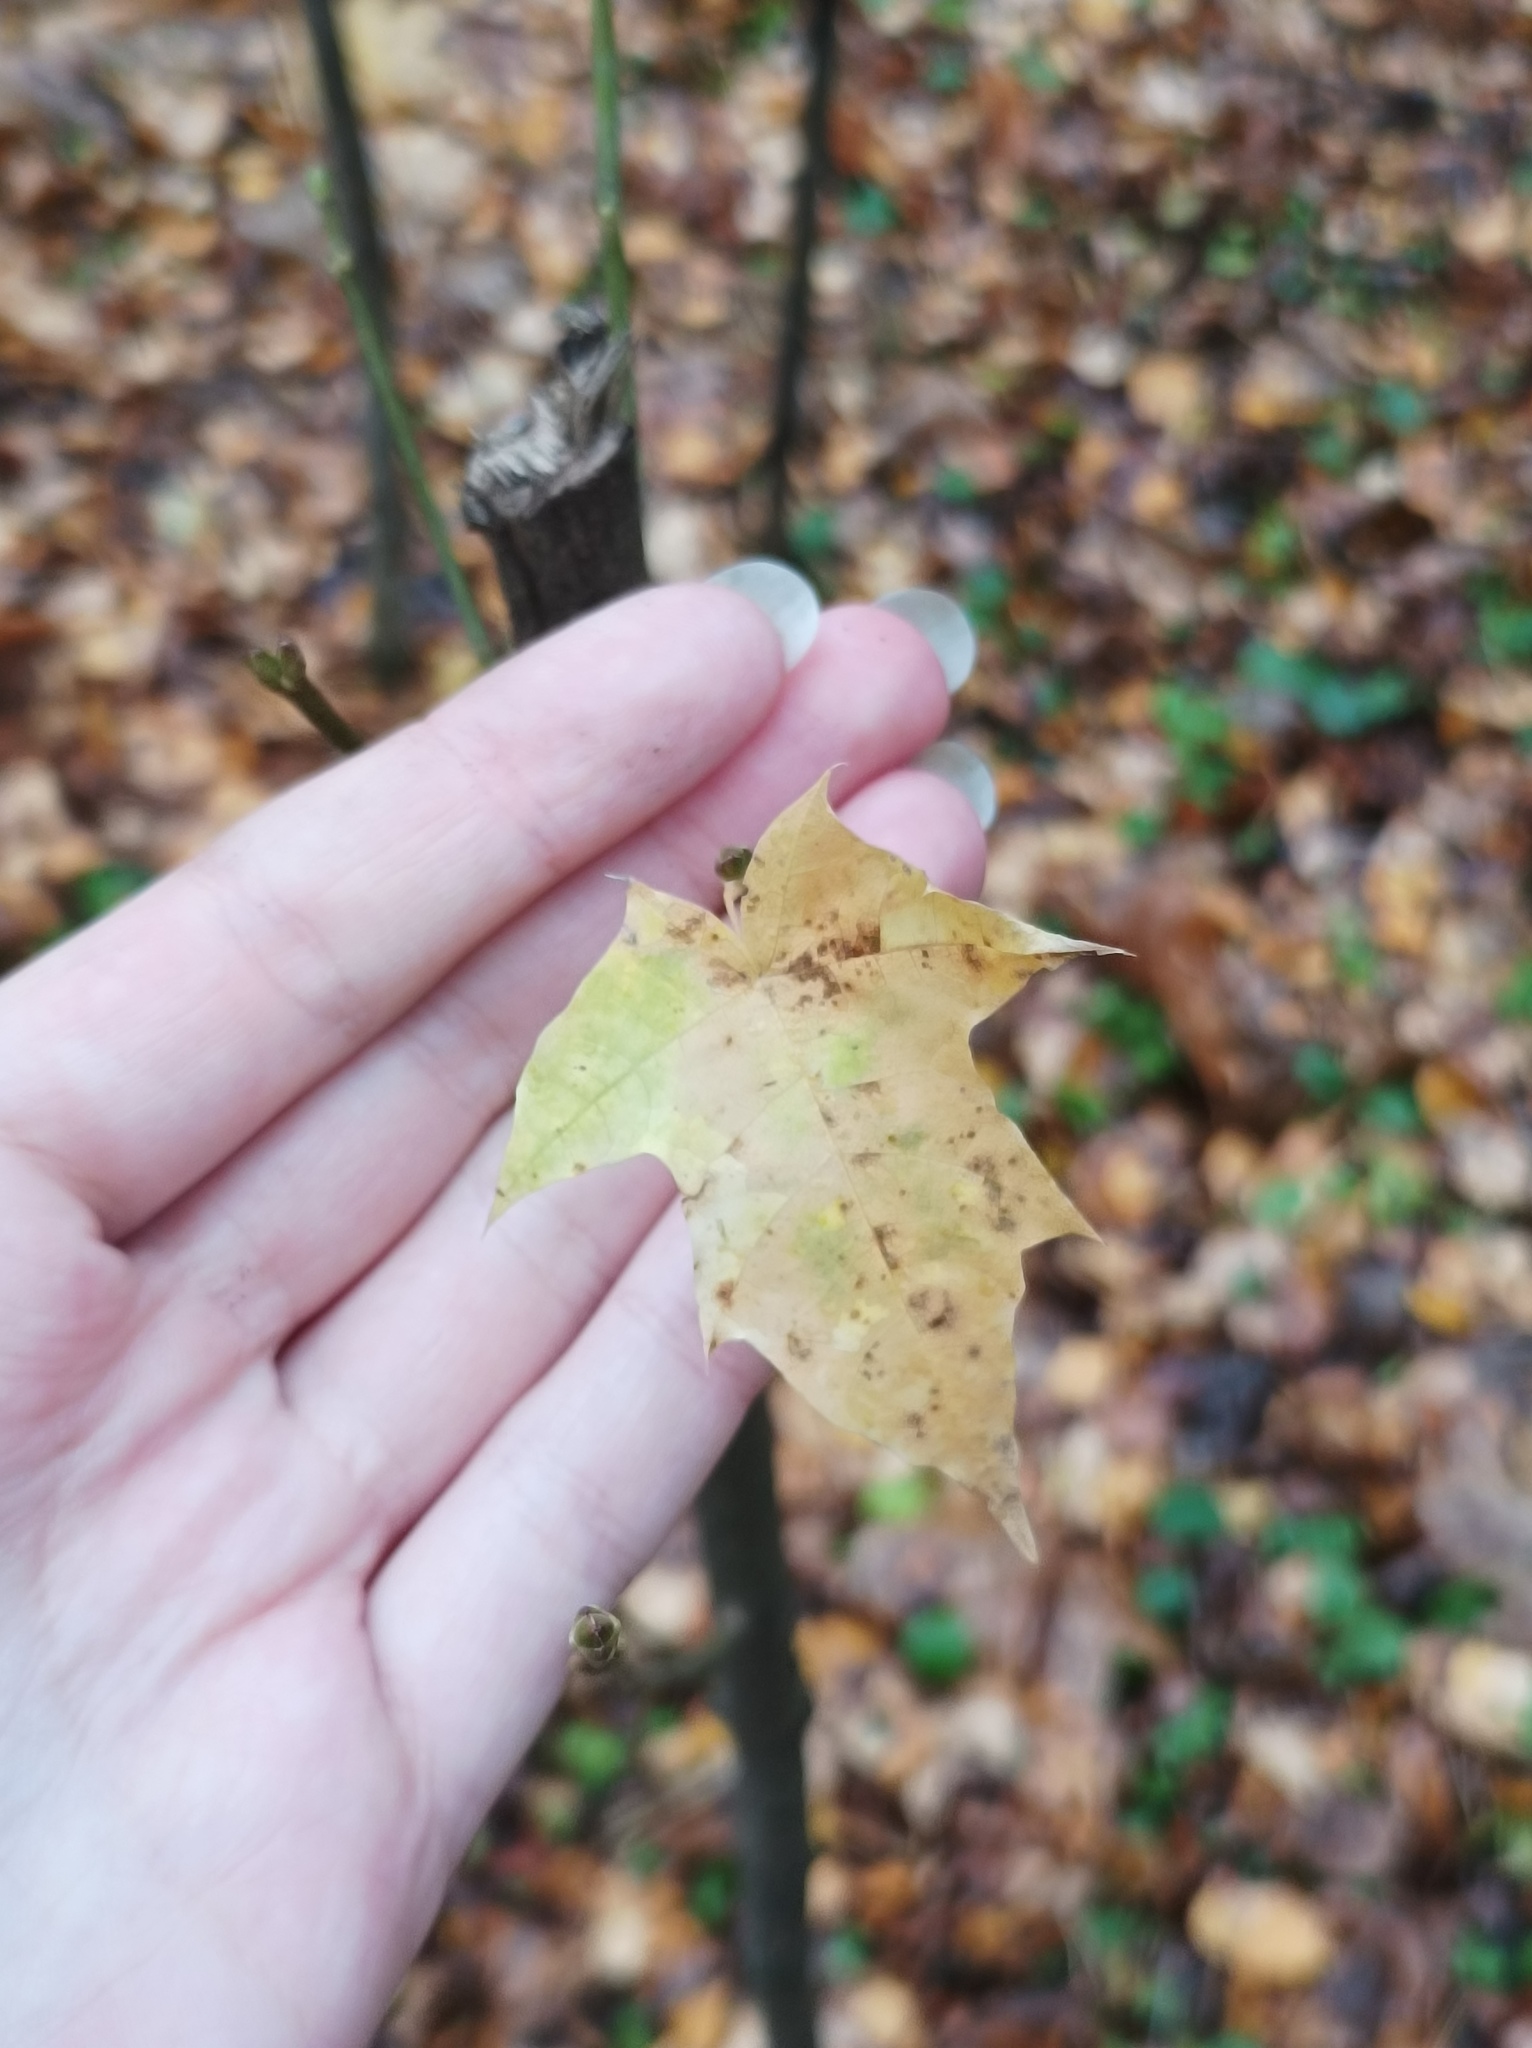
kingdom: Plantae
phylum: Tracheophyta
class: Magnoliopsida
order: Sapindales
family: Sapindaceae
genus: Acer
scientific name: Acer platanoides
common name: Norway maple
